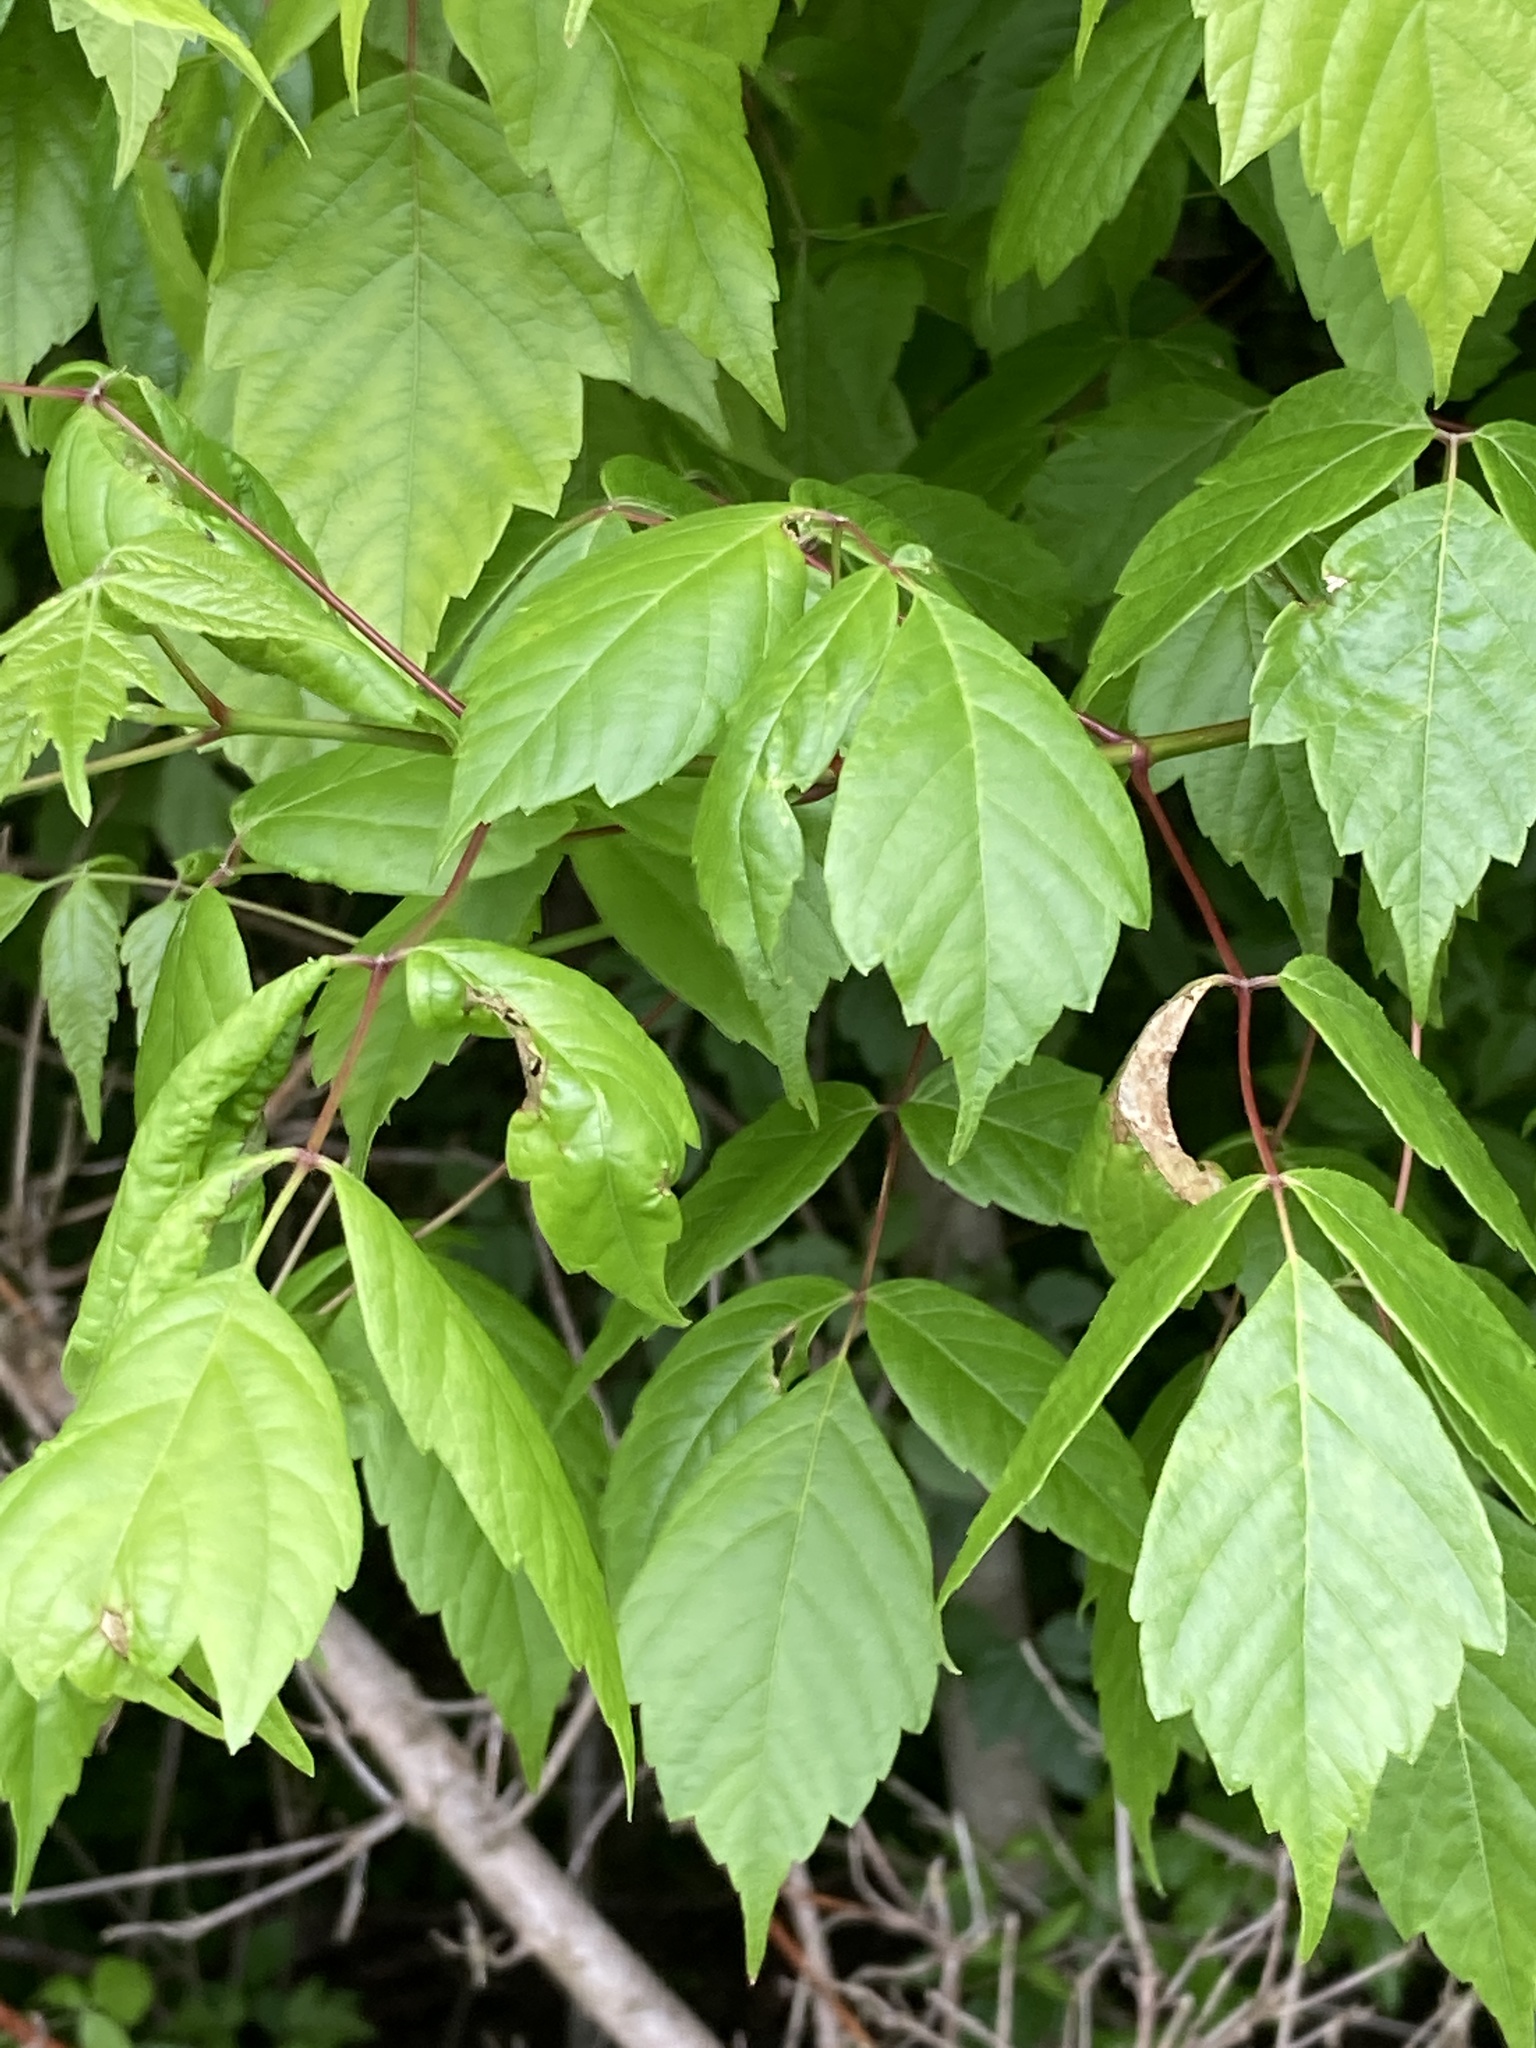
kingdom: Plantae
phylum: Tracheophyta
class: Magnoliopsida
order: Sapindales
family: Sapindaceae
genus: Acer
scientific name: Acer negundo
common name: Ashleaf maple
